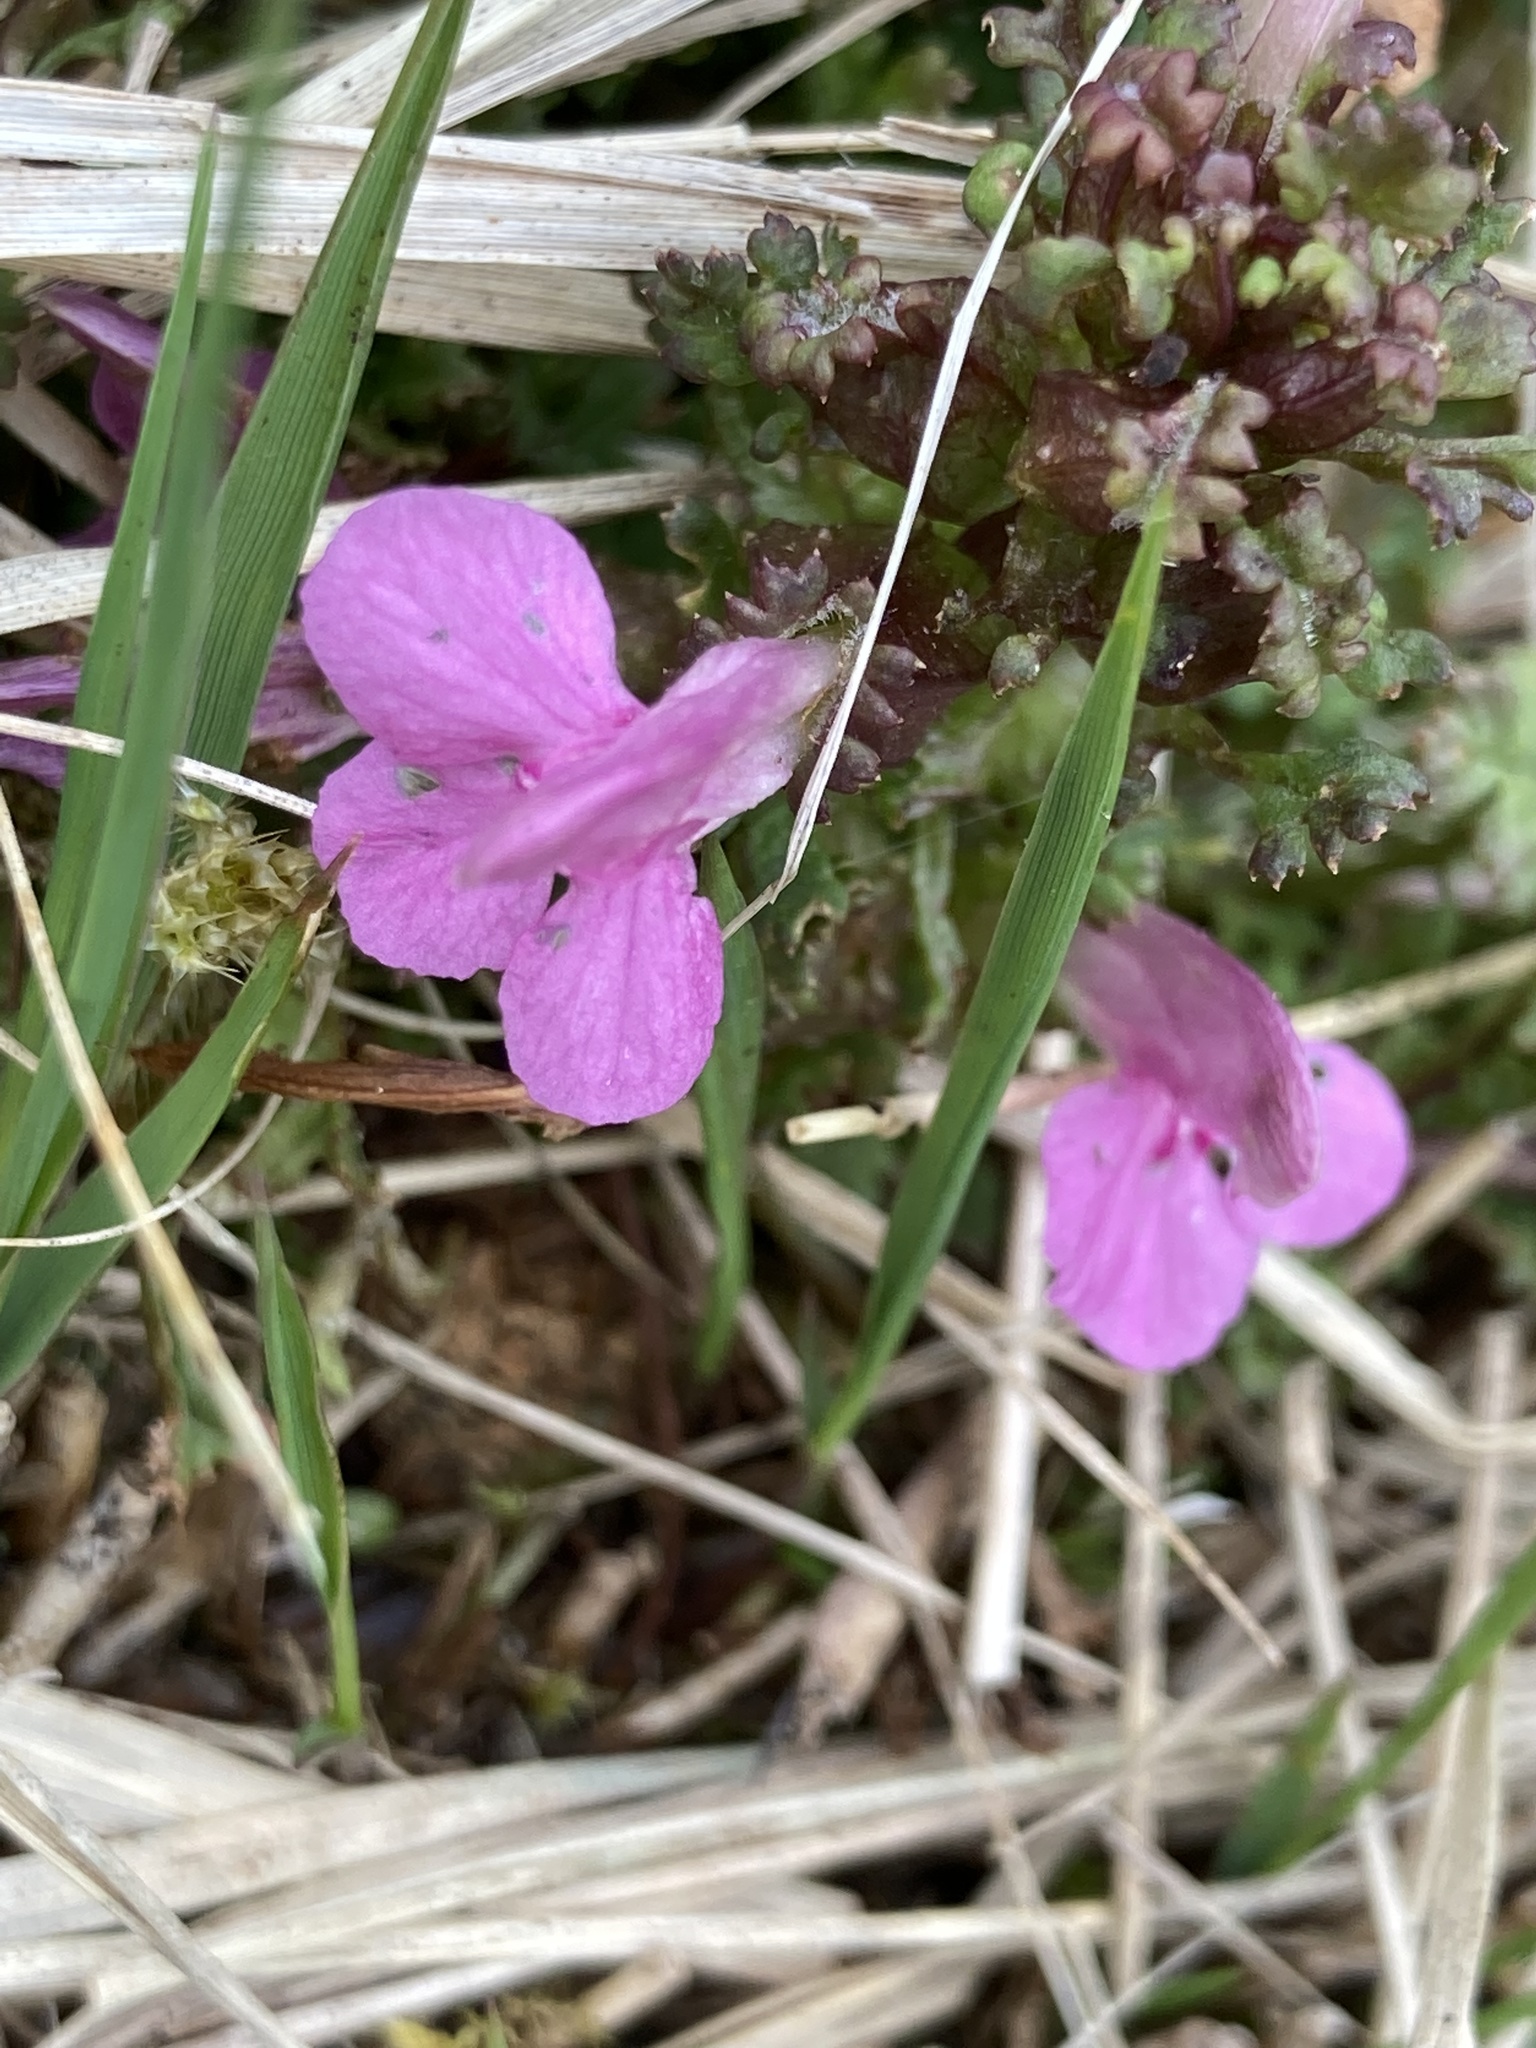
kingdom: Plantae
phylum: Tracheophyta
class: Magnoliopsida
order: Lamiales
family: Orobanchaceae
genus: Pedicularis
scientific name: Pedicularis sylvatica
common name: Lousewort
